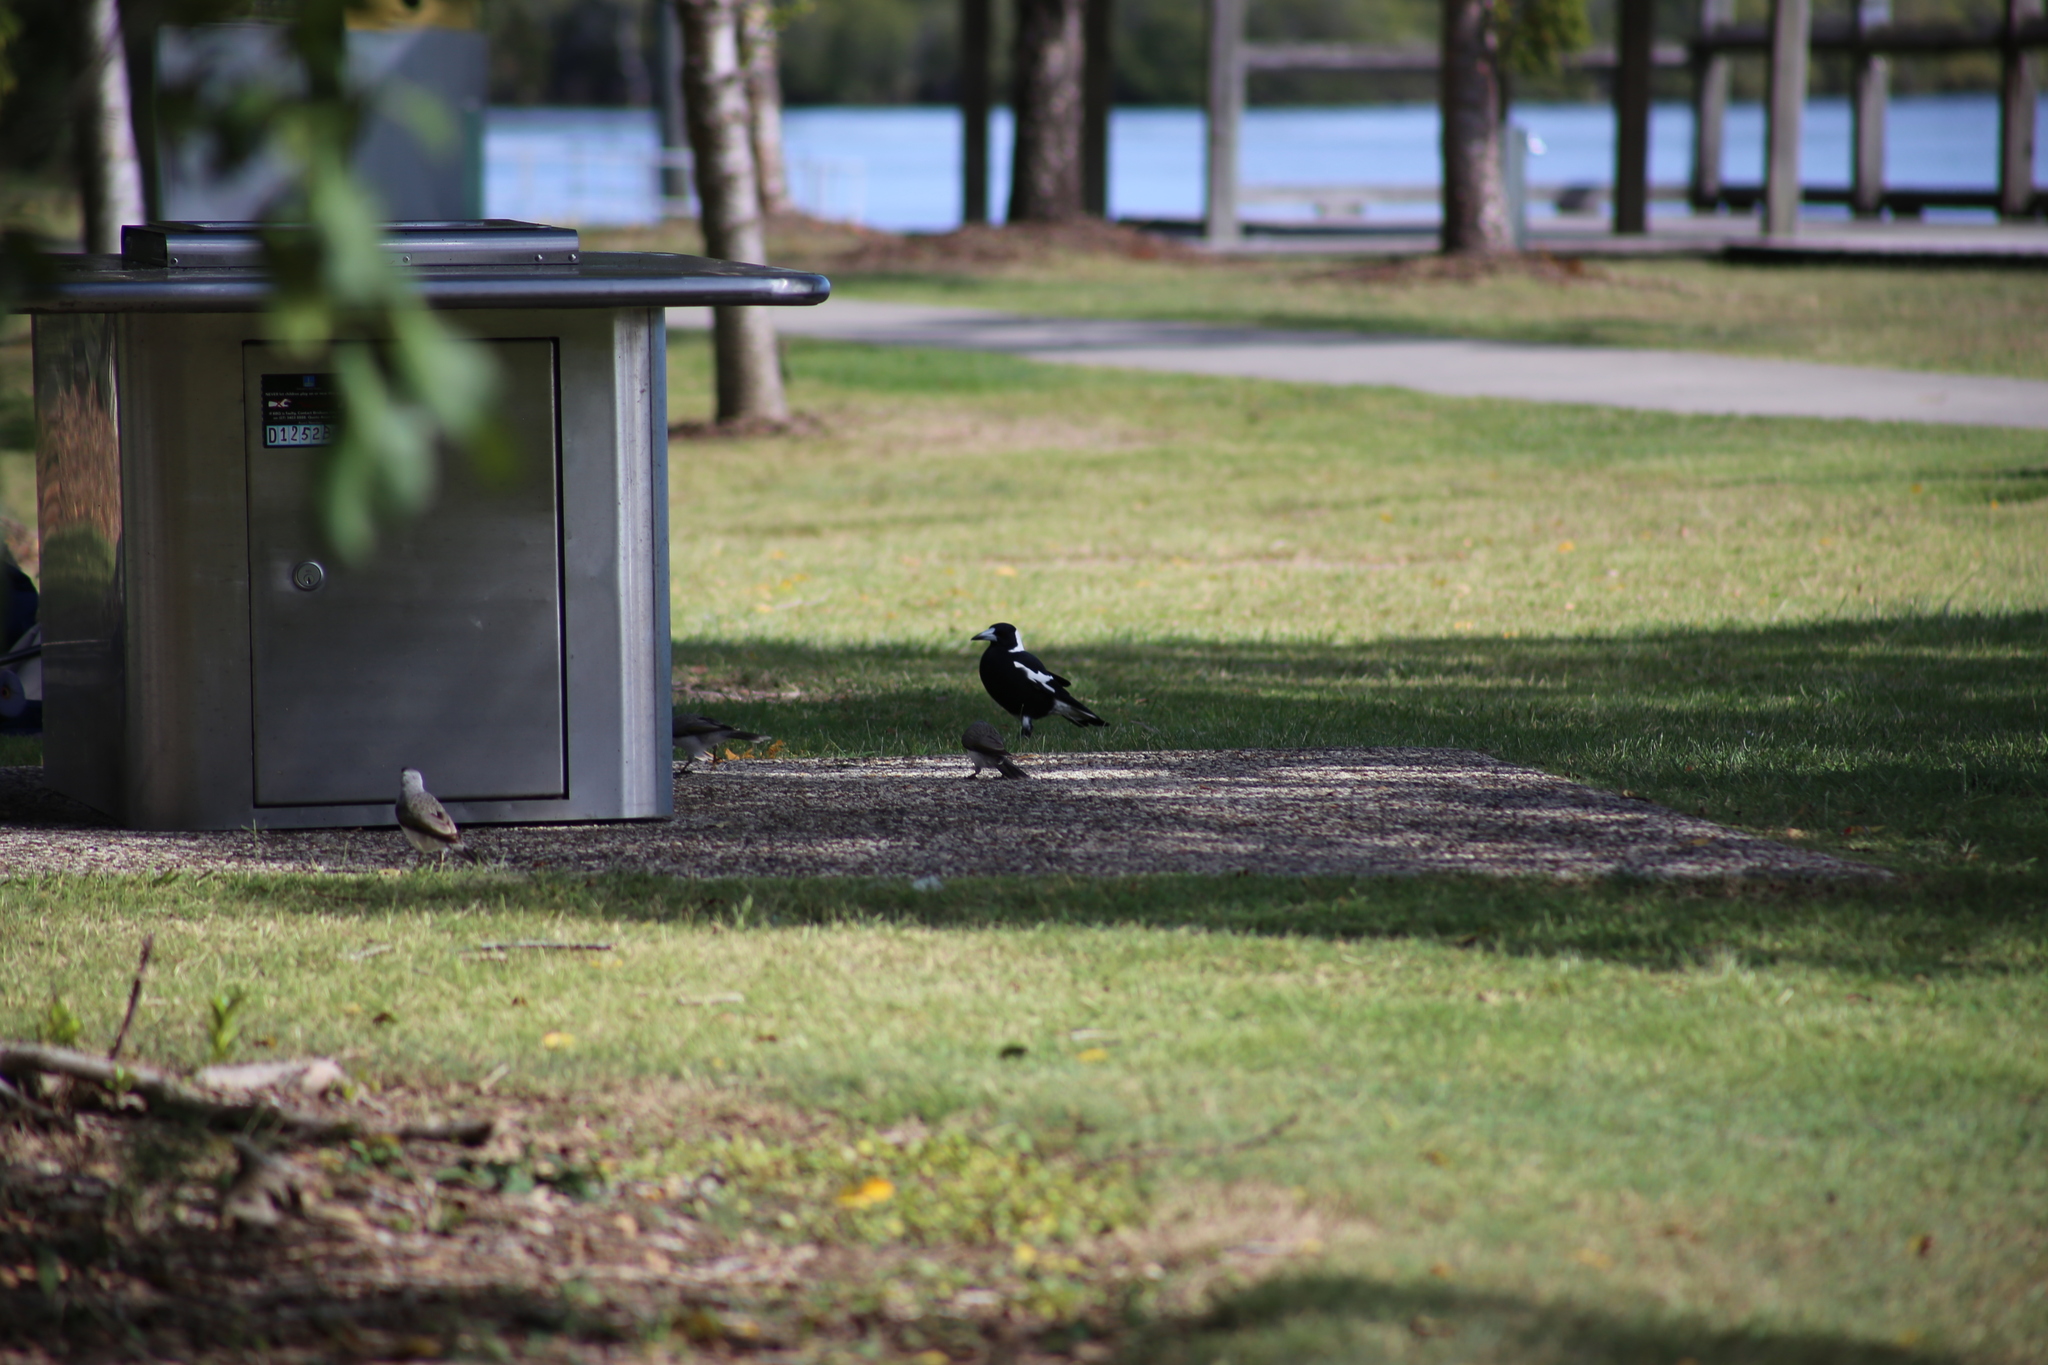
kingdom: Animalia
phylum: Chordata
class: Aves
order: Passeriformes
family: Cracticidae
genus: Gymnorhina
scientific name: Gymnorhina tibicen
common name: Australian magpie
